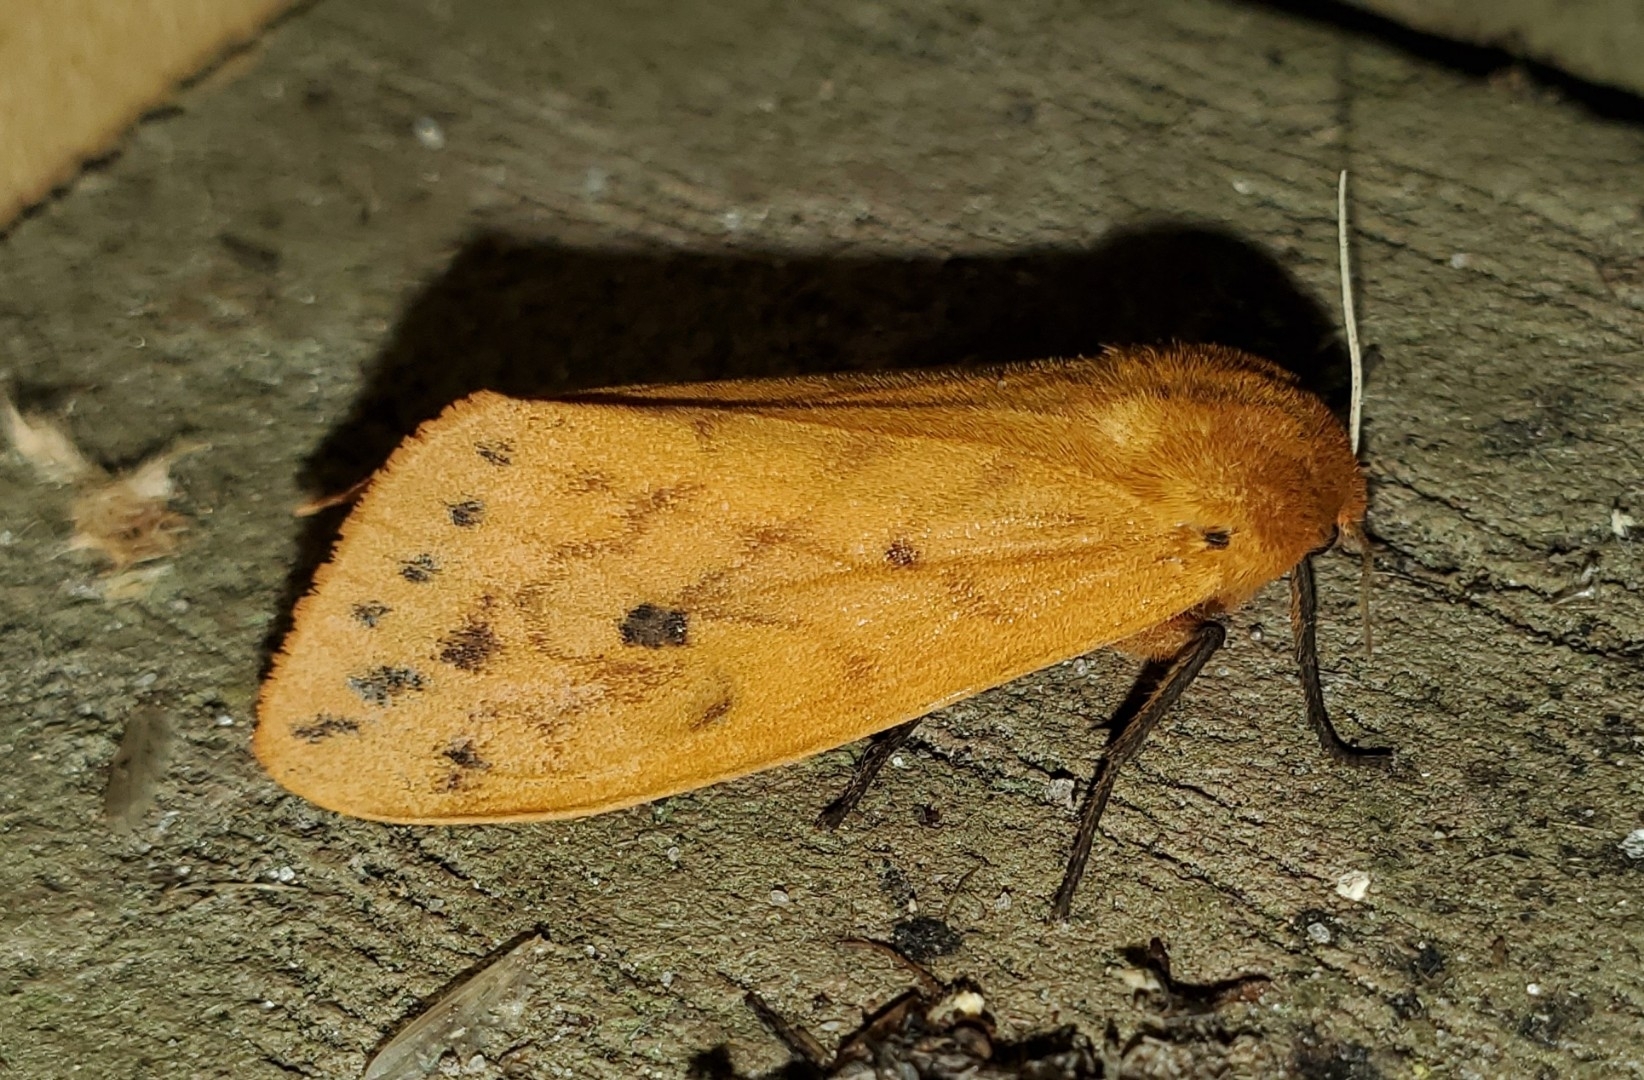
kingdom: Animalia
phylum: Arthropoda
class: Insecta
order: Lepidoptera
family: Erebidae
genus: Pyrrharctia
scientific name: Pyrrharctia isabella
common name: Isabella tiger moth
